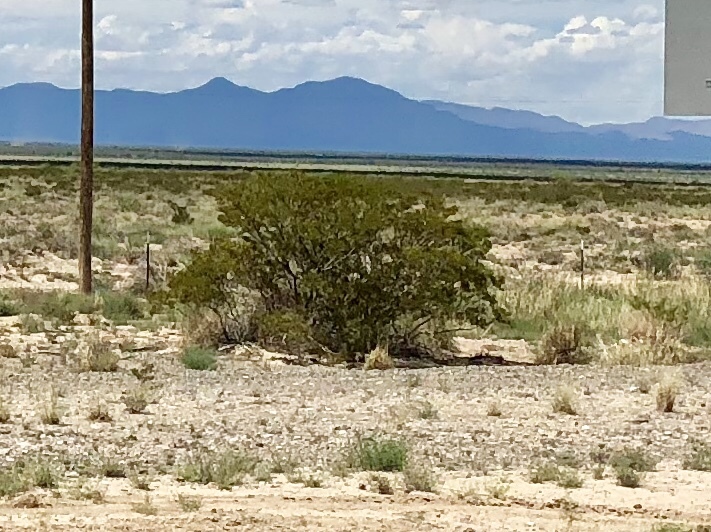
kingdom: Plantae
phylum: Tracheophyta
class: Magnoliopsida
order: Zygophyllales
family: Zygophyllaceae
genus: Larrea
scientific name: Larrea tridentata
